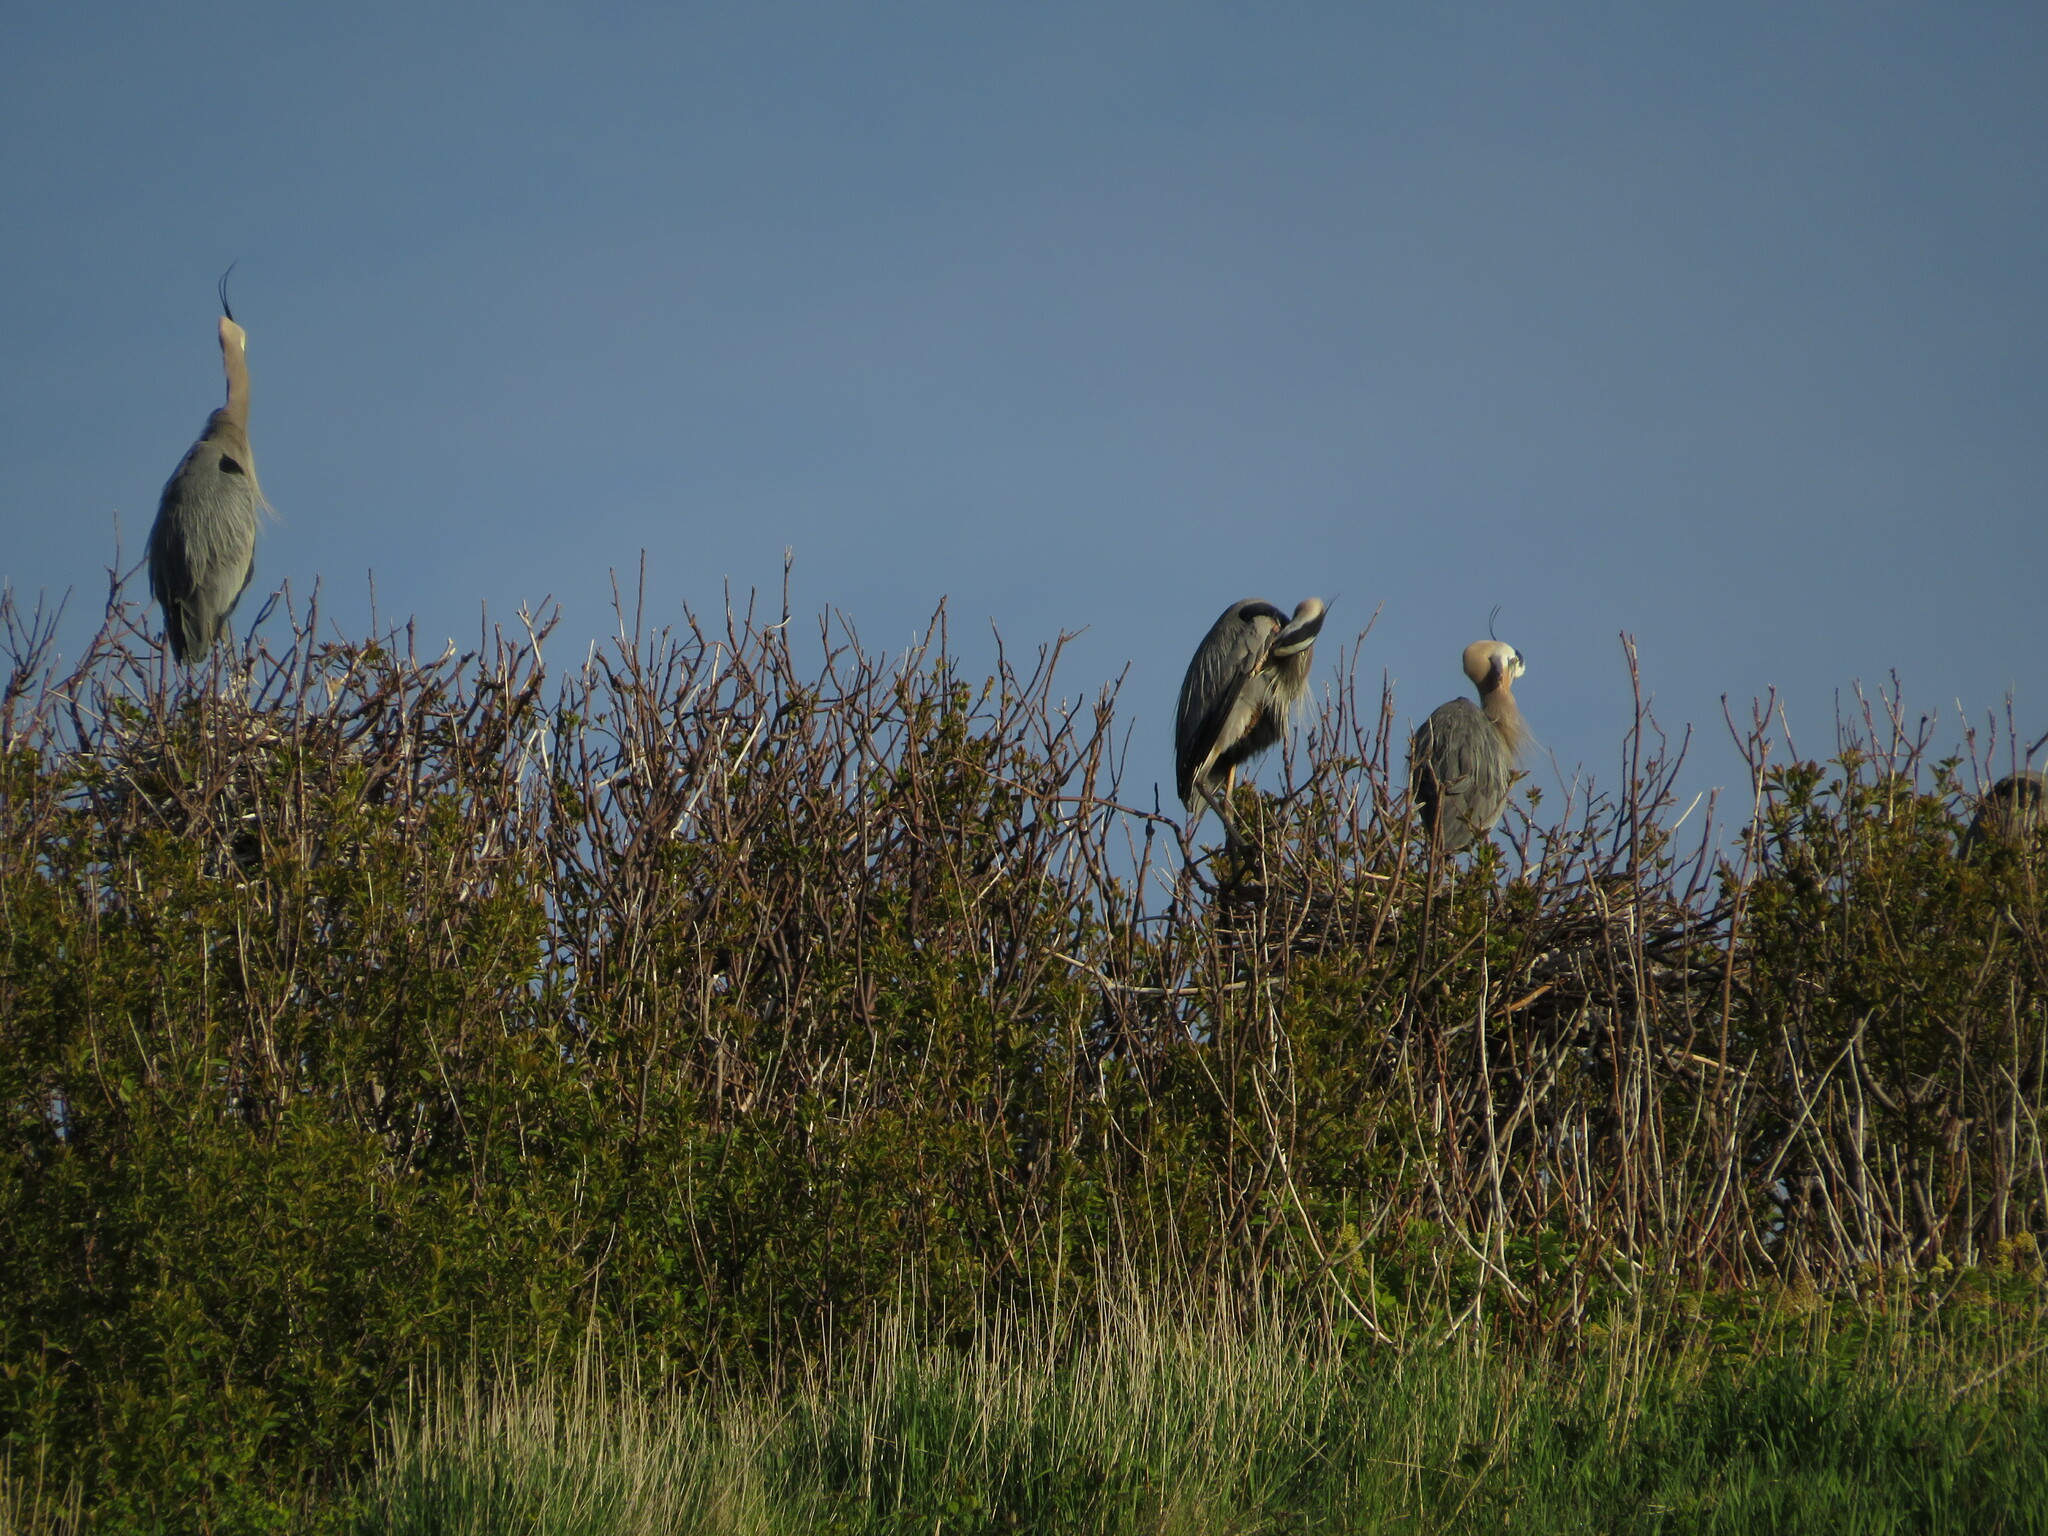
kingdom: Animalia
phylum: Chordata
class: Aves
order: Pelecaniformes
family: Ardeidae
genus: Ardea
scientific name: Ardea herodias
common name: Great blue heron
